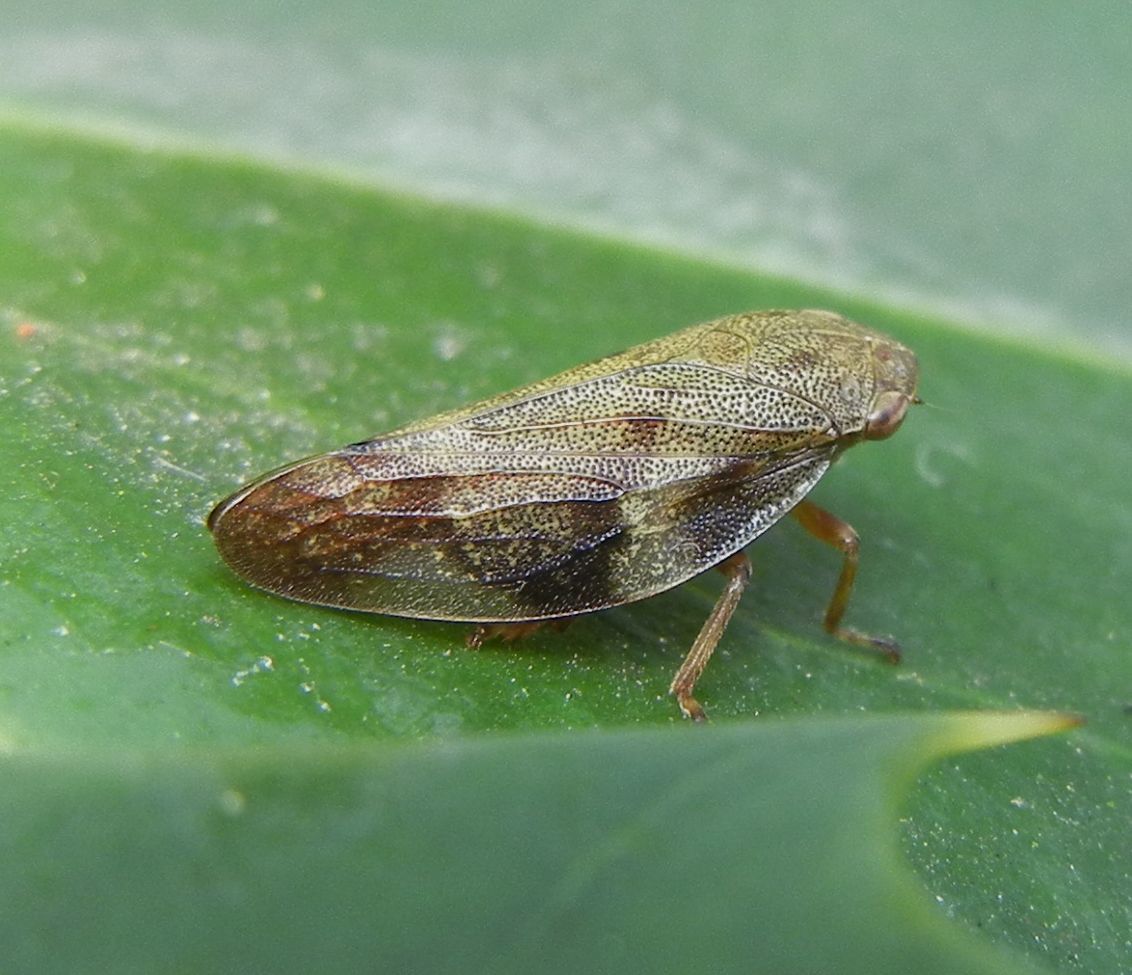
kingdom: Animalia
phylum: Arthropoda
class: Insecta
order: Hemiptera
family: Aphrophoridae
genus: Aphrophora
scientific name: Aphrophora alni
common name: European alder spittlebug
